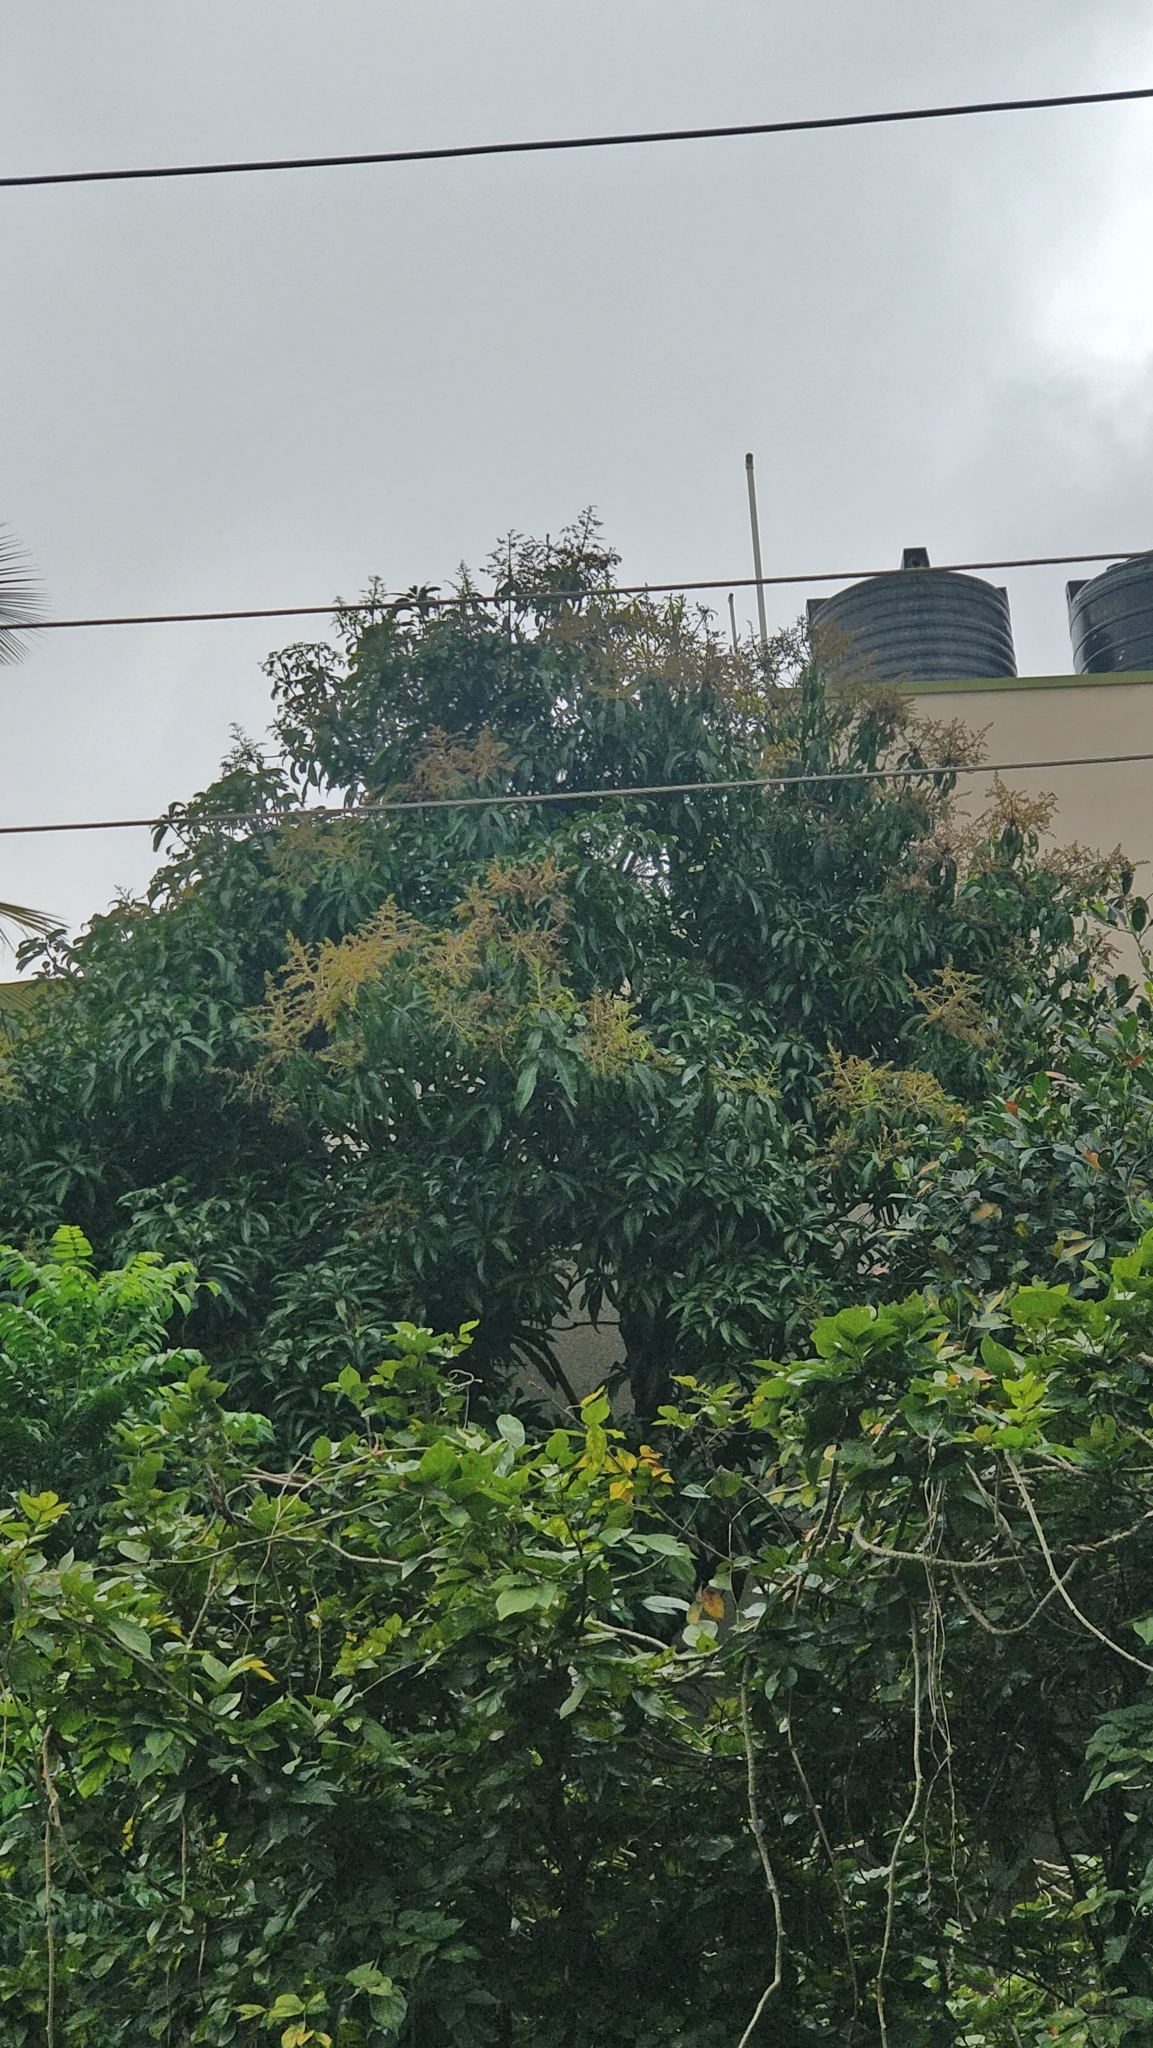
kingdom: Plantae
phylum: Tracheophyta
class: Magnoliopsida
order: Sapindales
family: Anacardiaceae
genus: Mangifera
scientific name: Mangifera indica
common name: Mango
